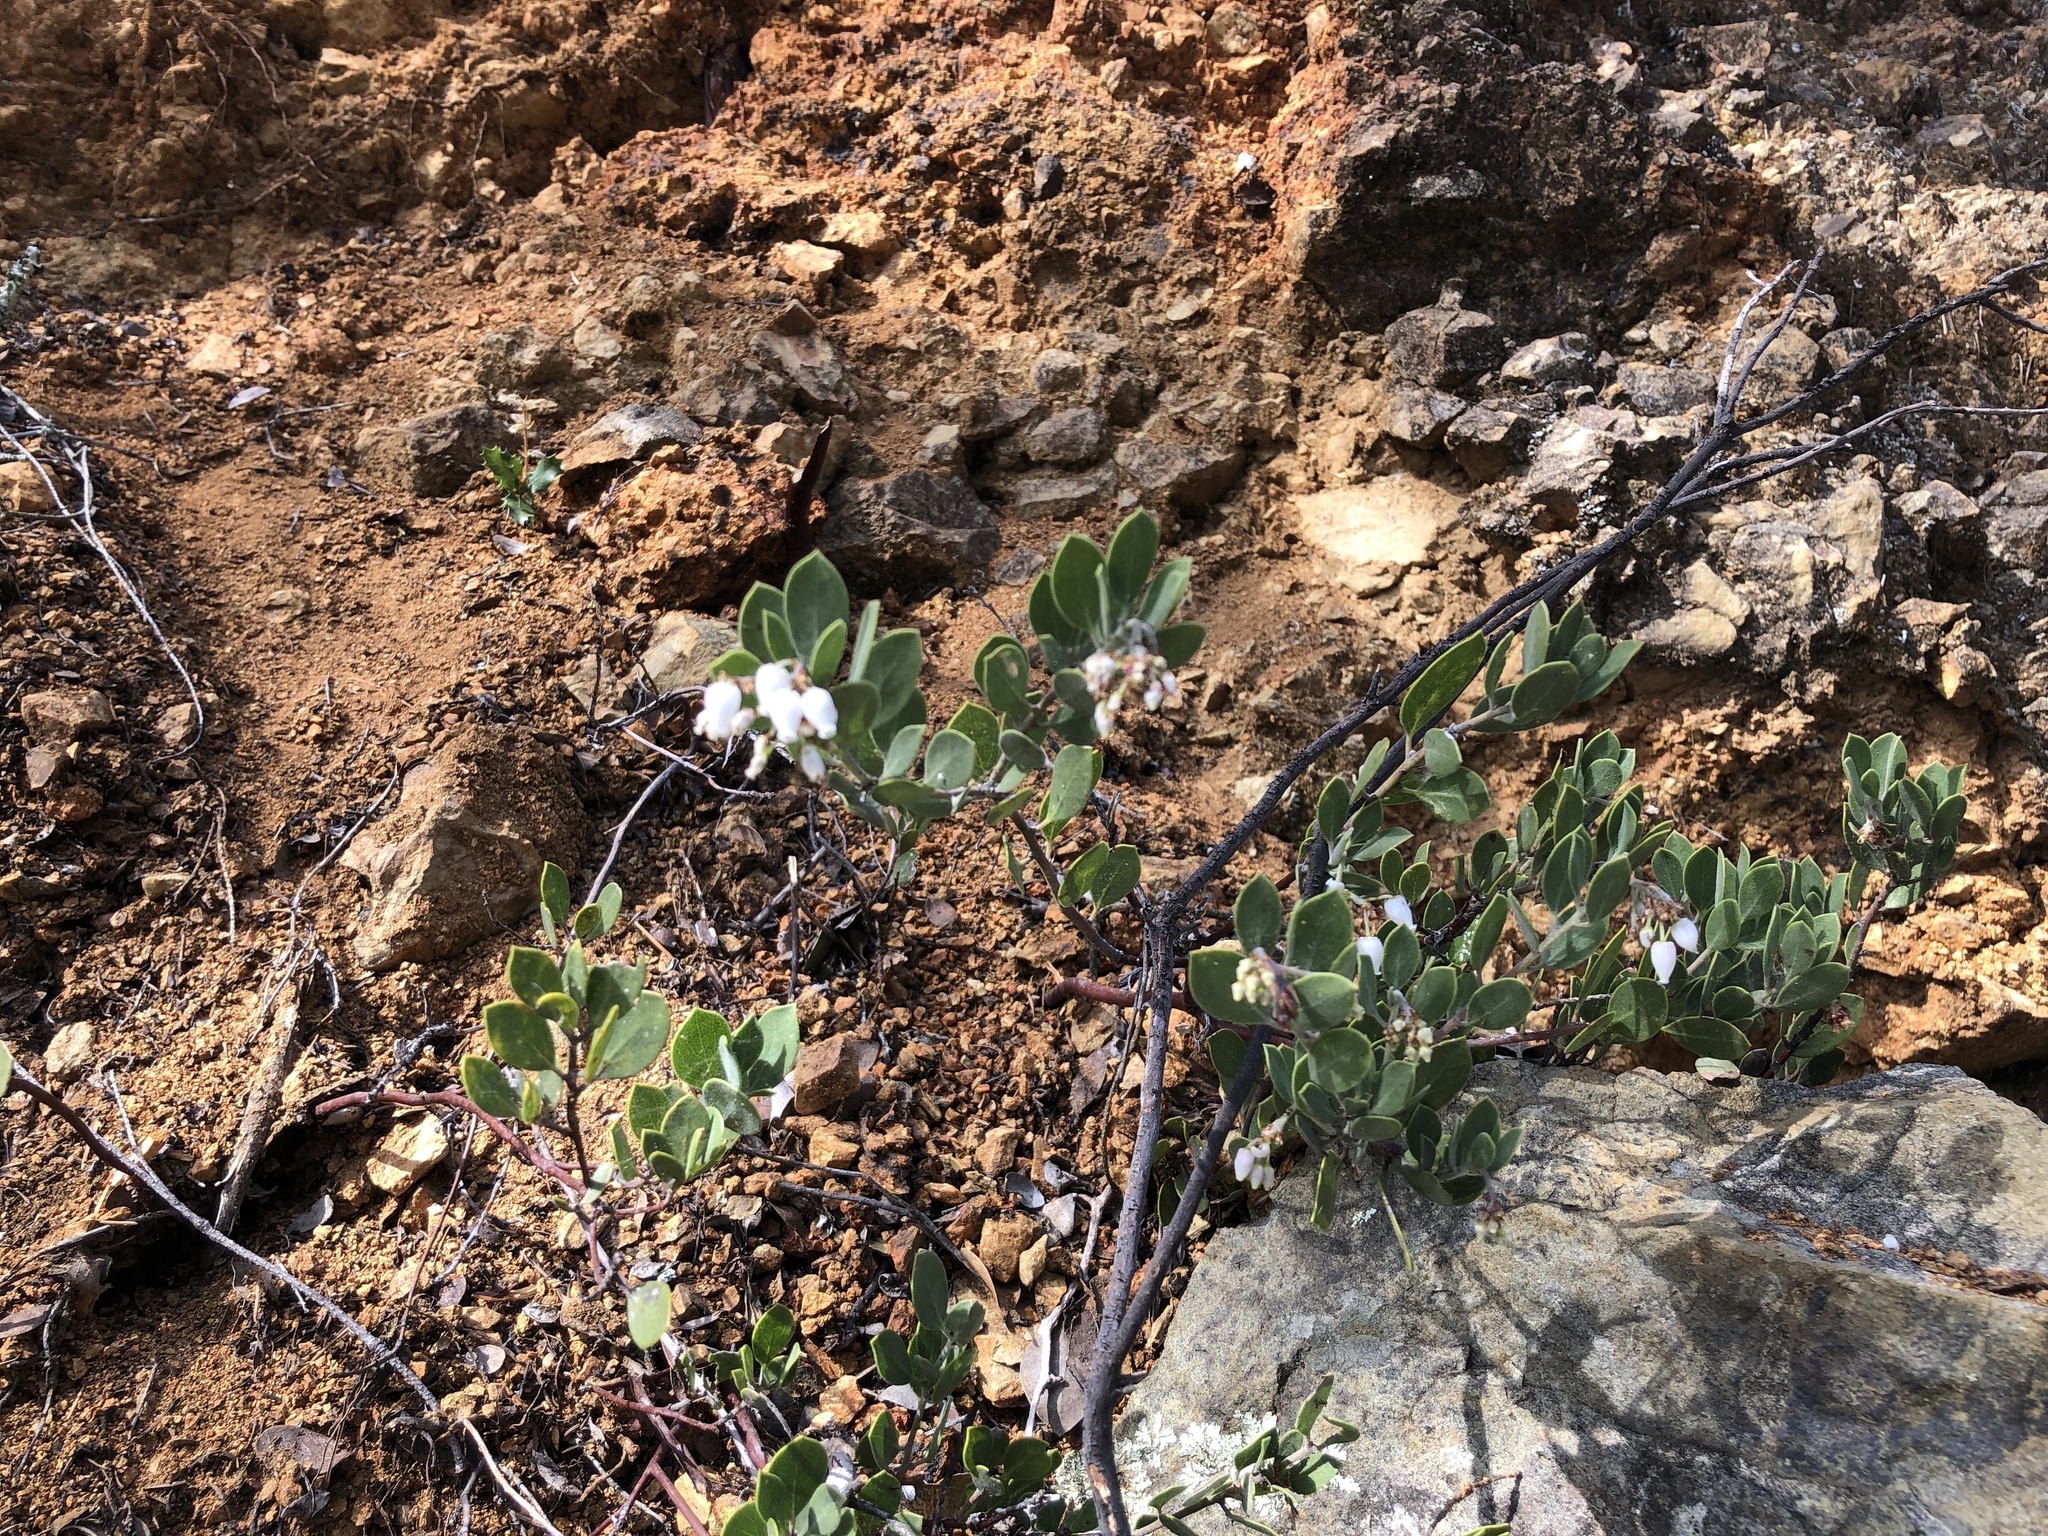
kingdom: Plantae
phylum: Tracheophyta
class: Magnoliopsida
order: Ericales
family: Ericaceae
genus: Arctostaphylos
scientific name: Arctostaphylos montana
